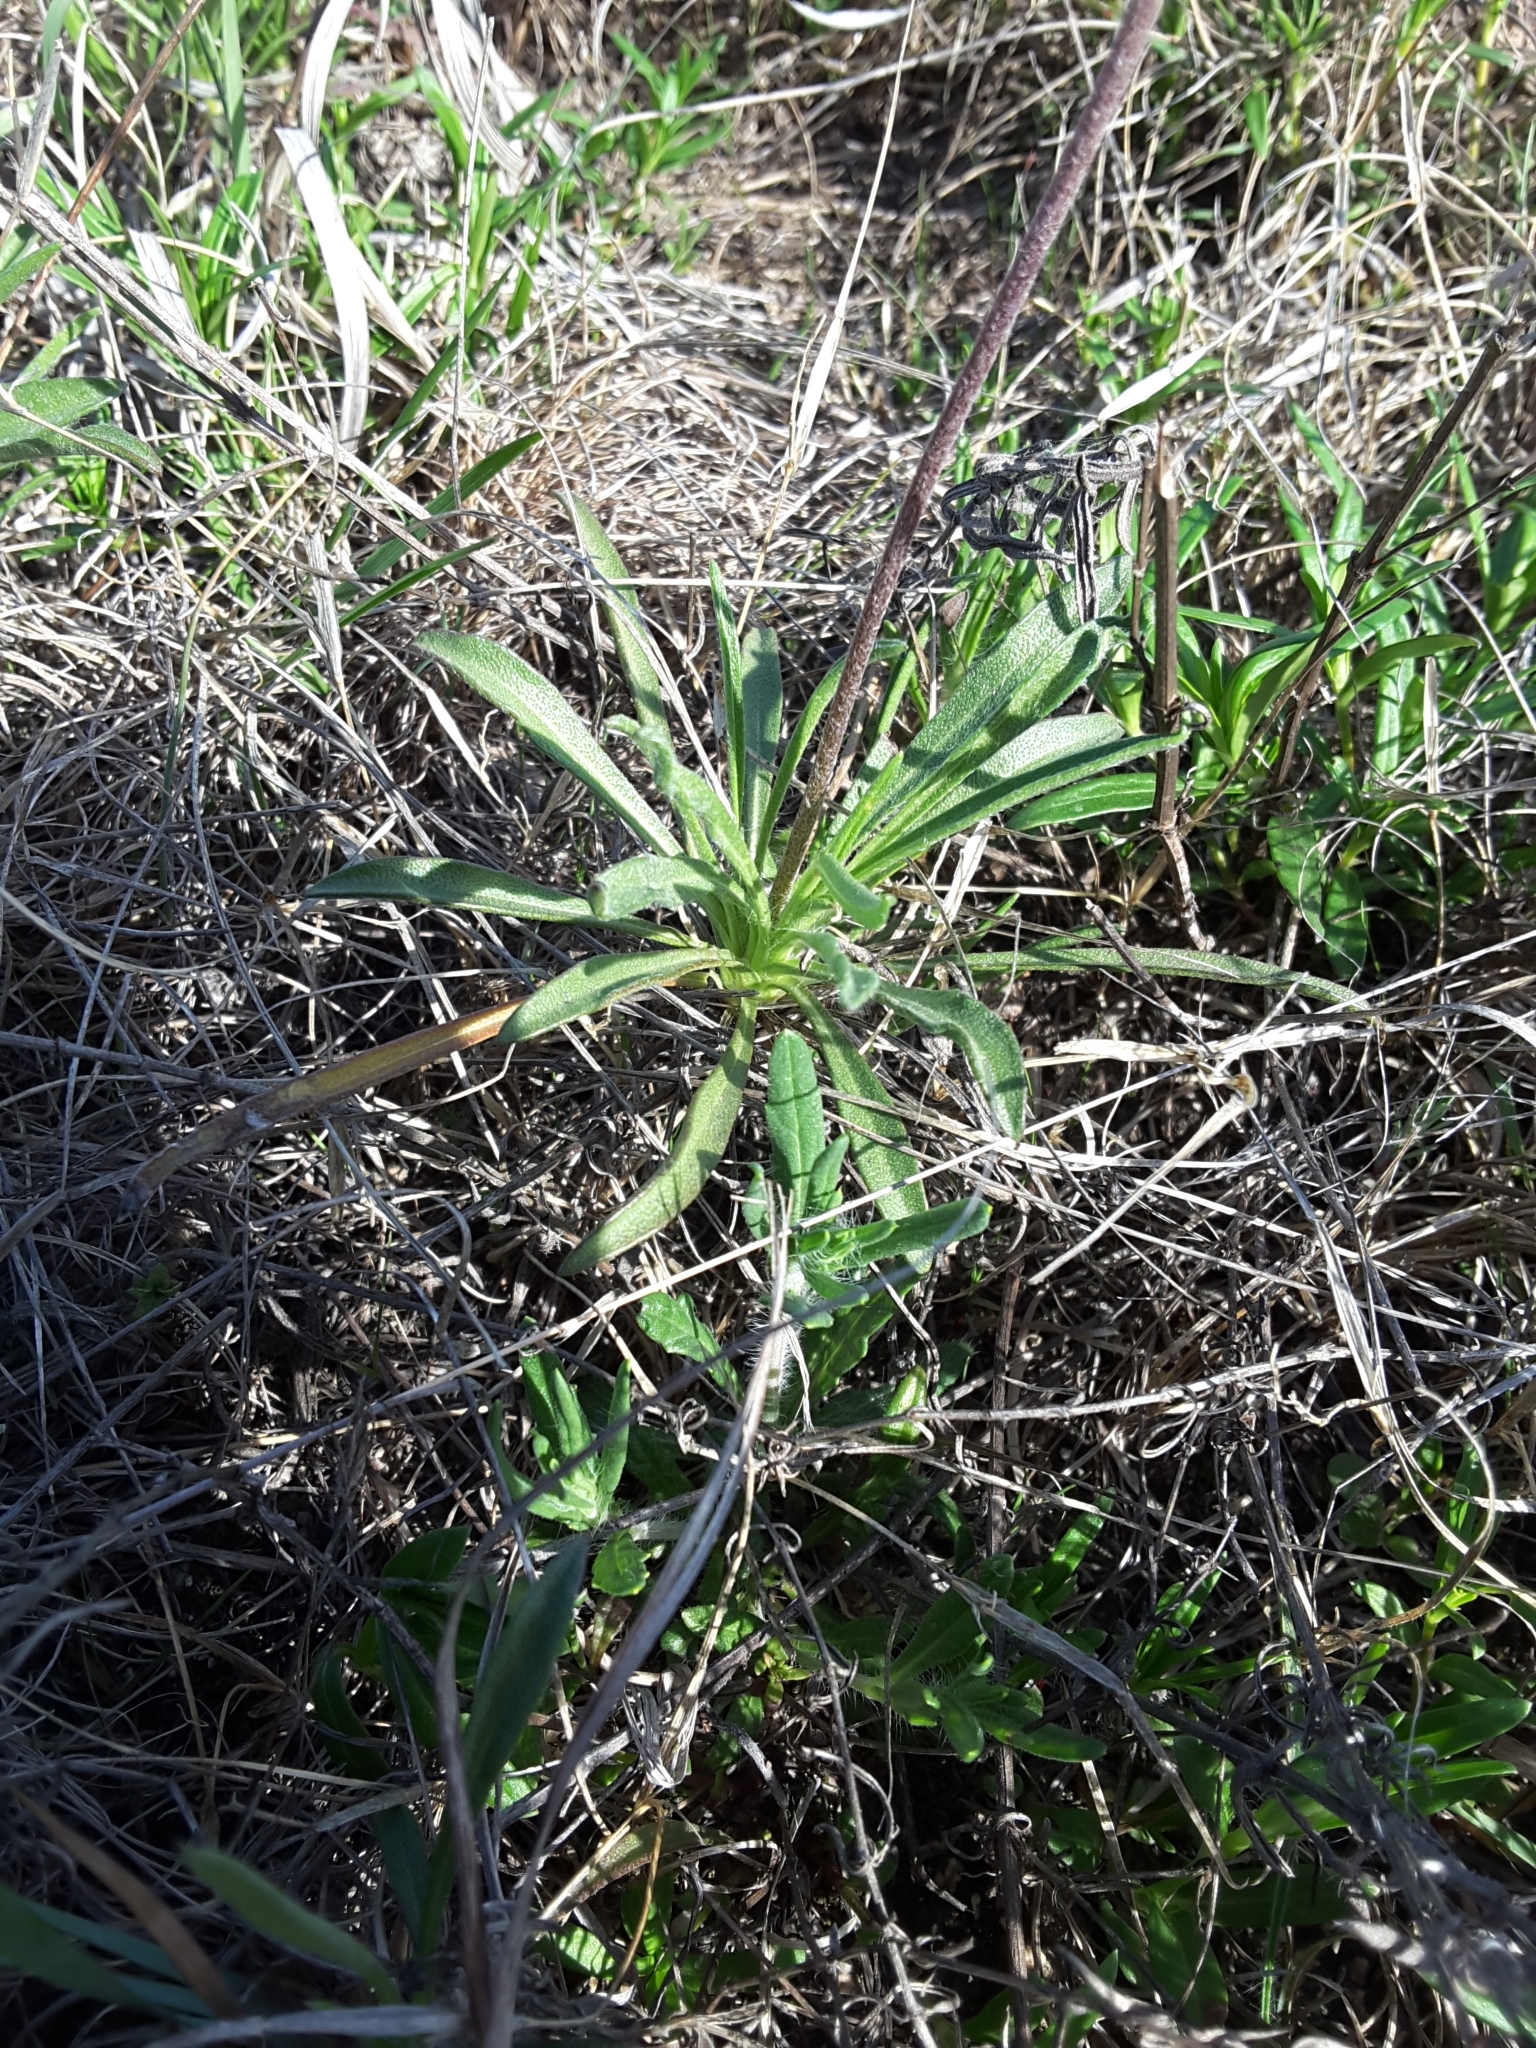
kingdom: Plantae
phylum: Tracheophyta
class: Magnoliopsida
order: Asterales
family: Asteraceae
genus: Tetraneuris
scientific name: Tetraneuris scaposa
